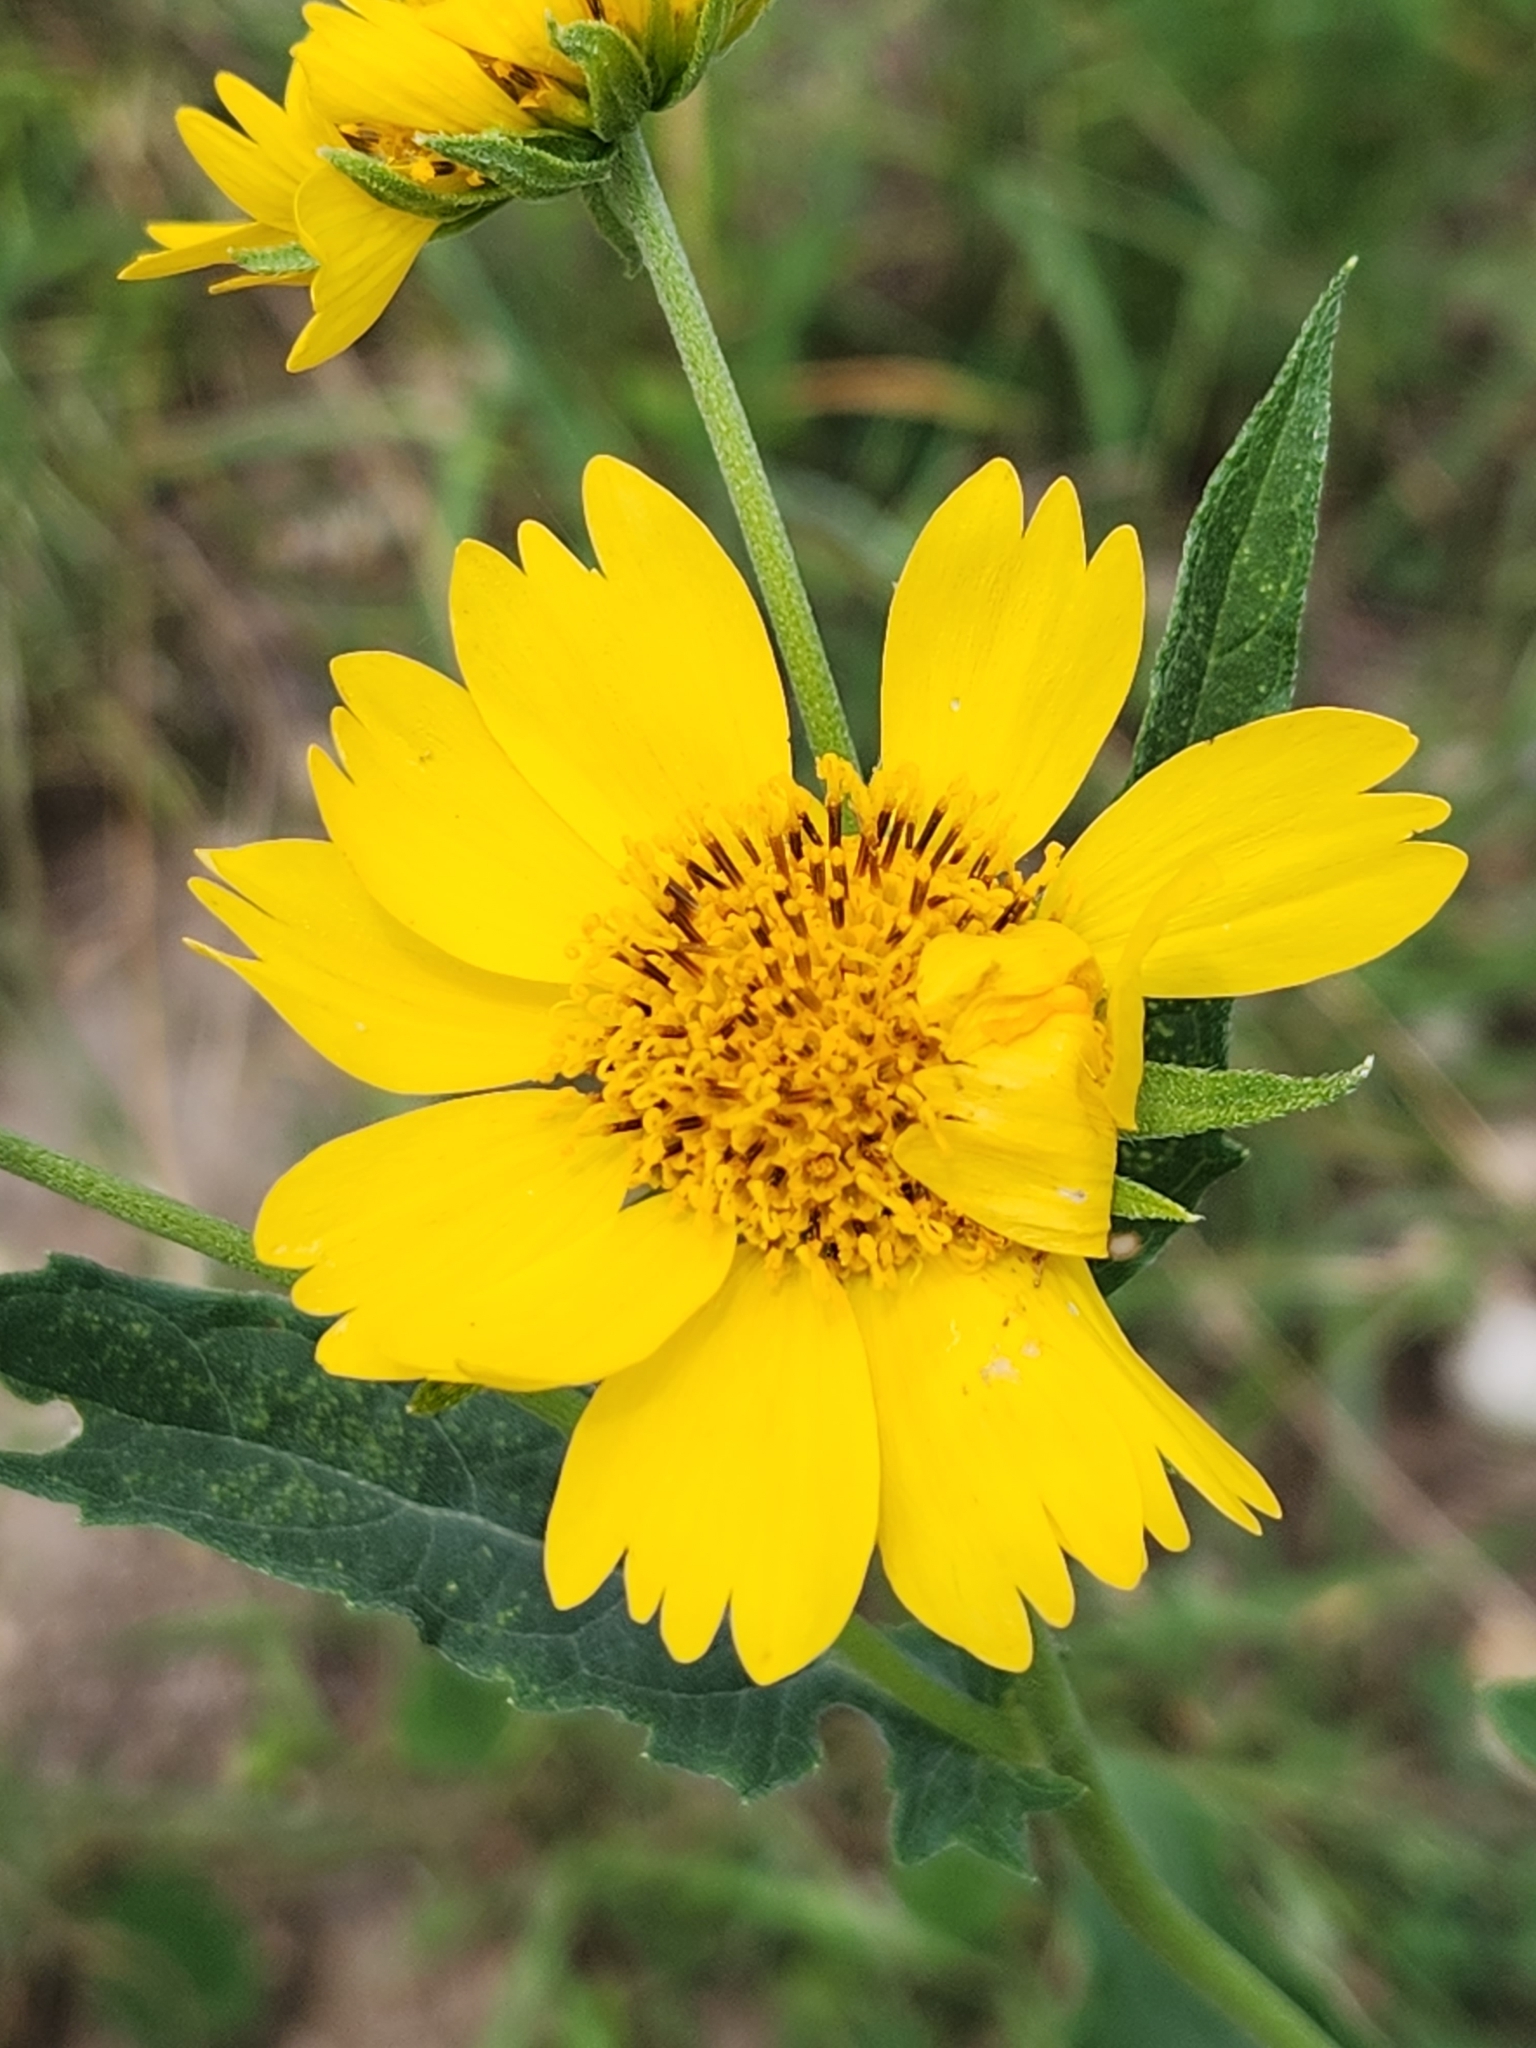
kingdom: Plantae
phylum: Tracheophyta
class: Magnoliopsida
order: Asterales
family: Asteraceae
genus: Verbesina
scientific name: Verbesina encelioides
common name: Golden crownbeard
